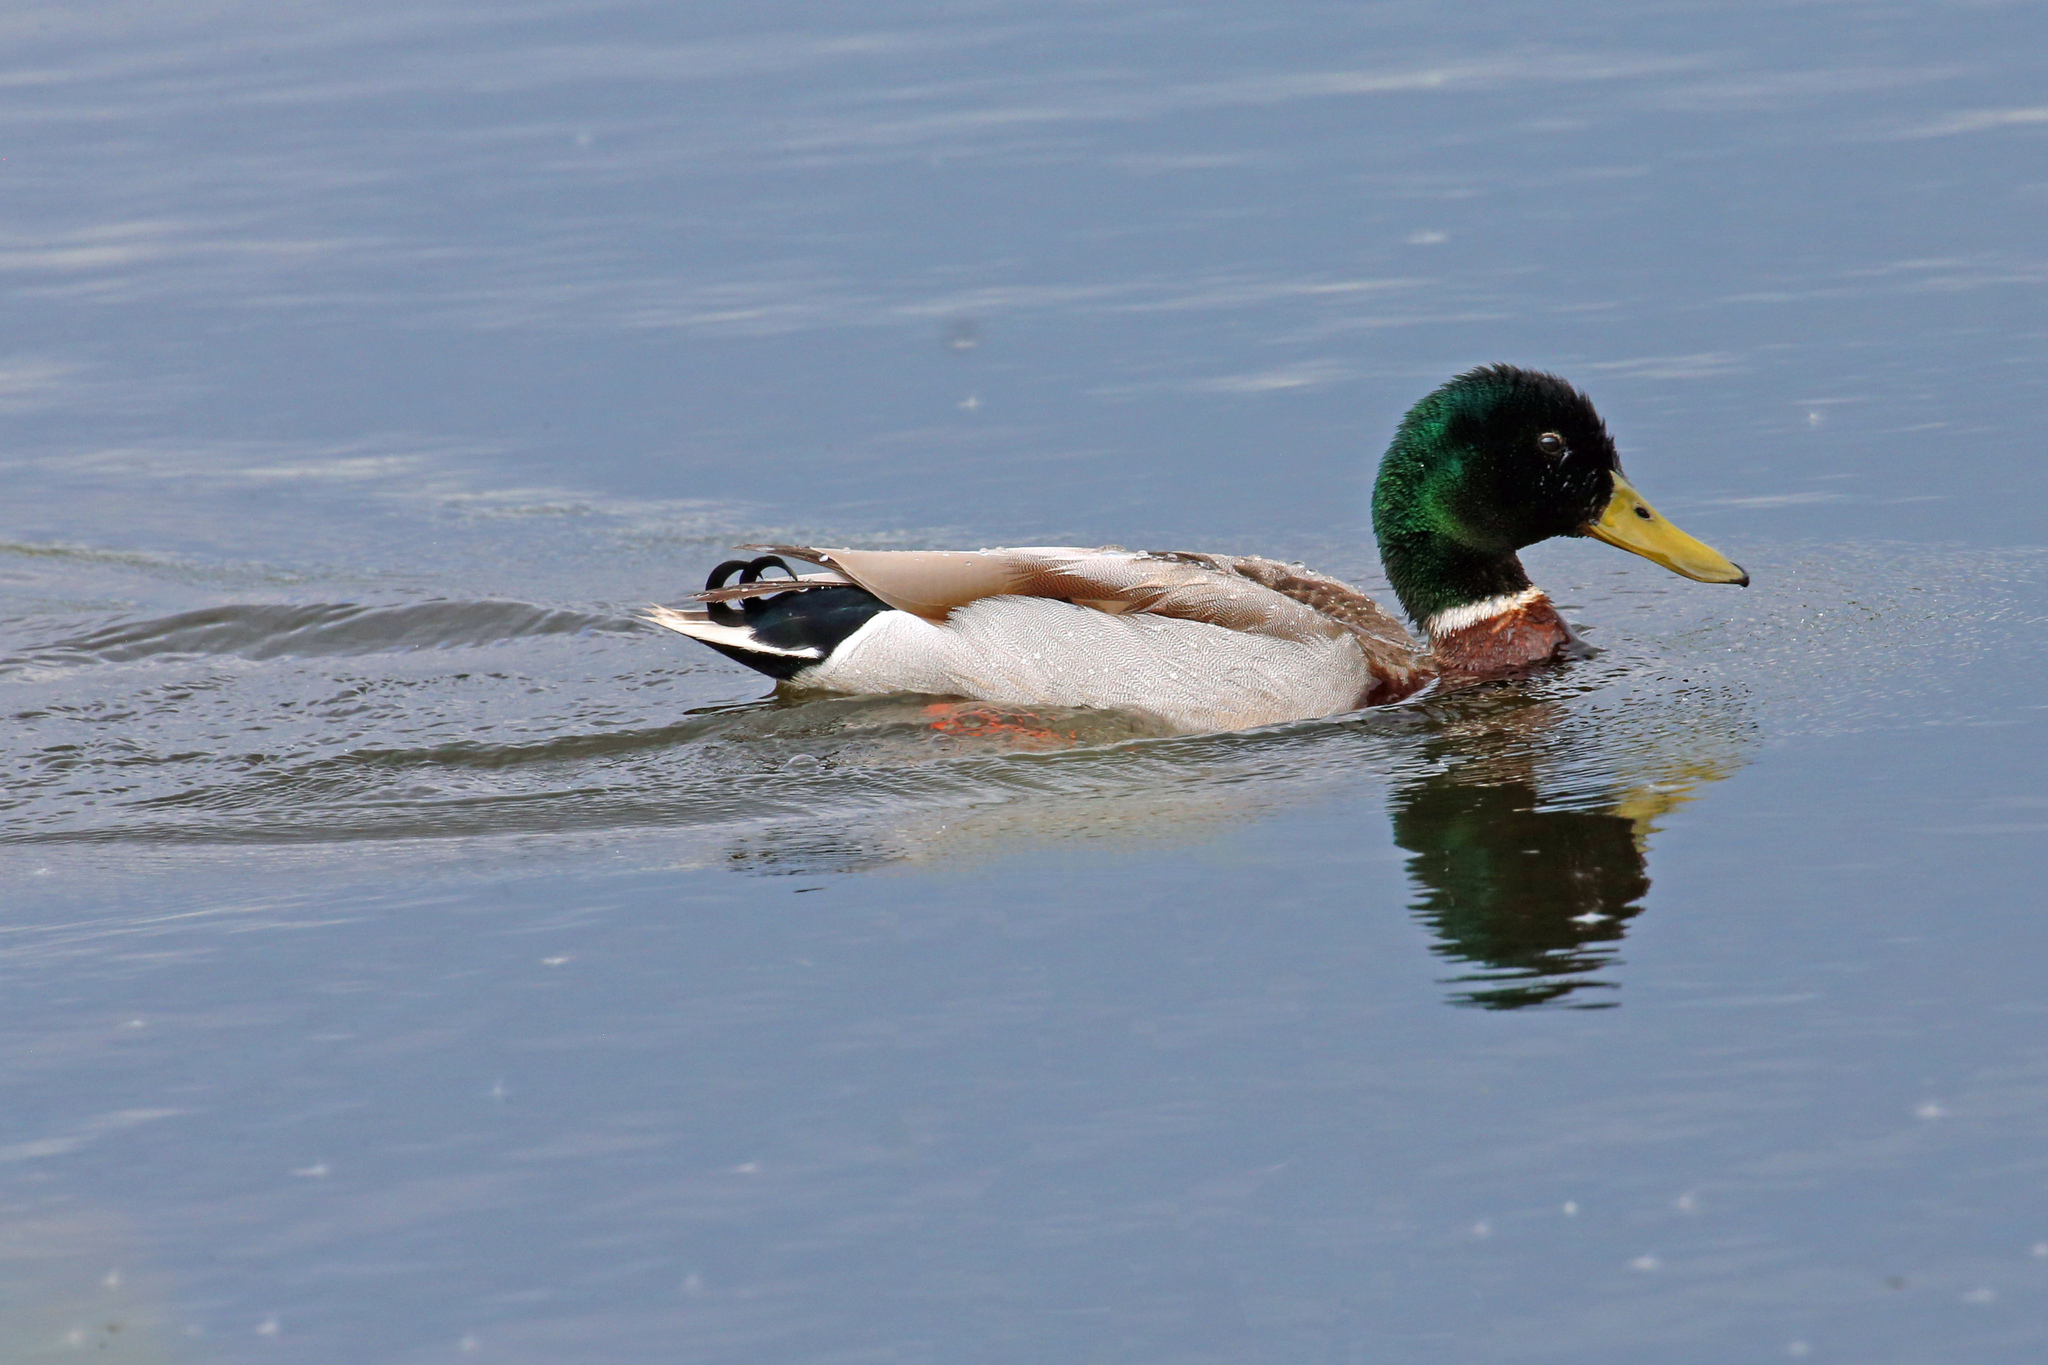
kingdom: Animalia
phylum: Chordata
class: Aves
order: Anseriformes
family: Anatidae
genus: Anas
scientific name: Anas platyrhynchos
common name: Mallard
